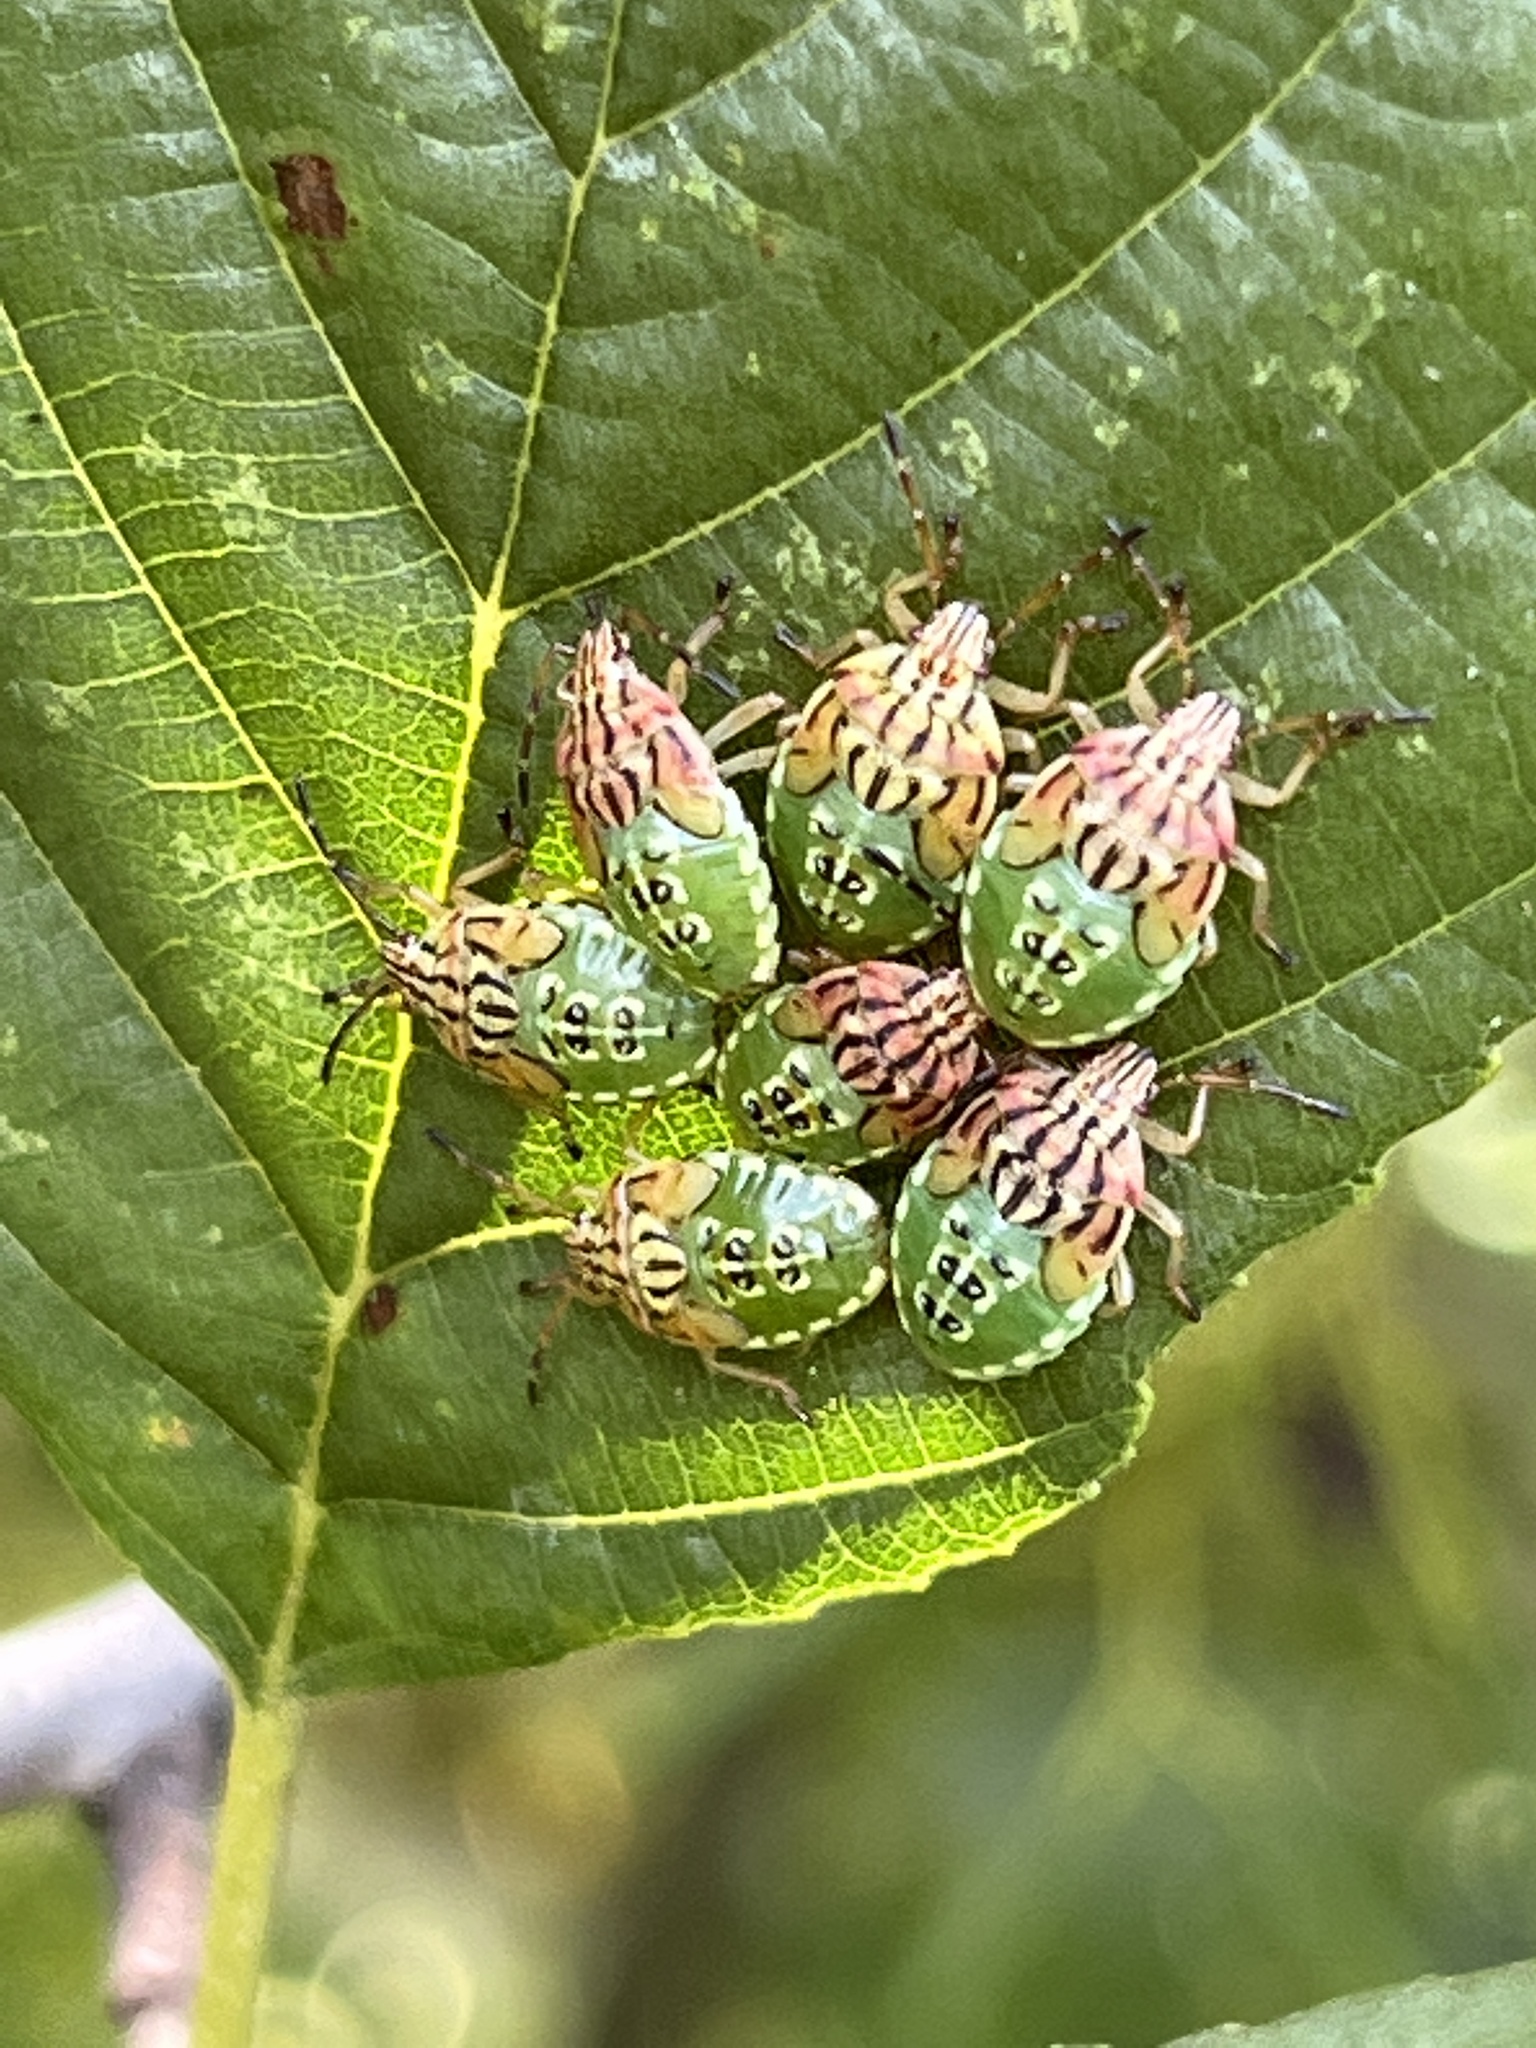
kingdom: Animalia
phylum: Arthropoda
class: Insecta
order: Hemiptera
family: Acanthosomatidae
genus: Elasmucha
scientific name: Elasmucha grisea
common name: Parent bug
